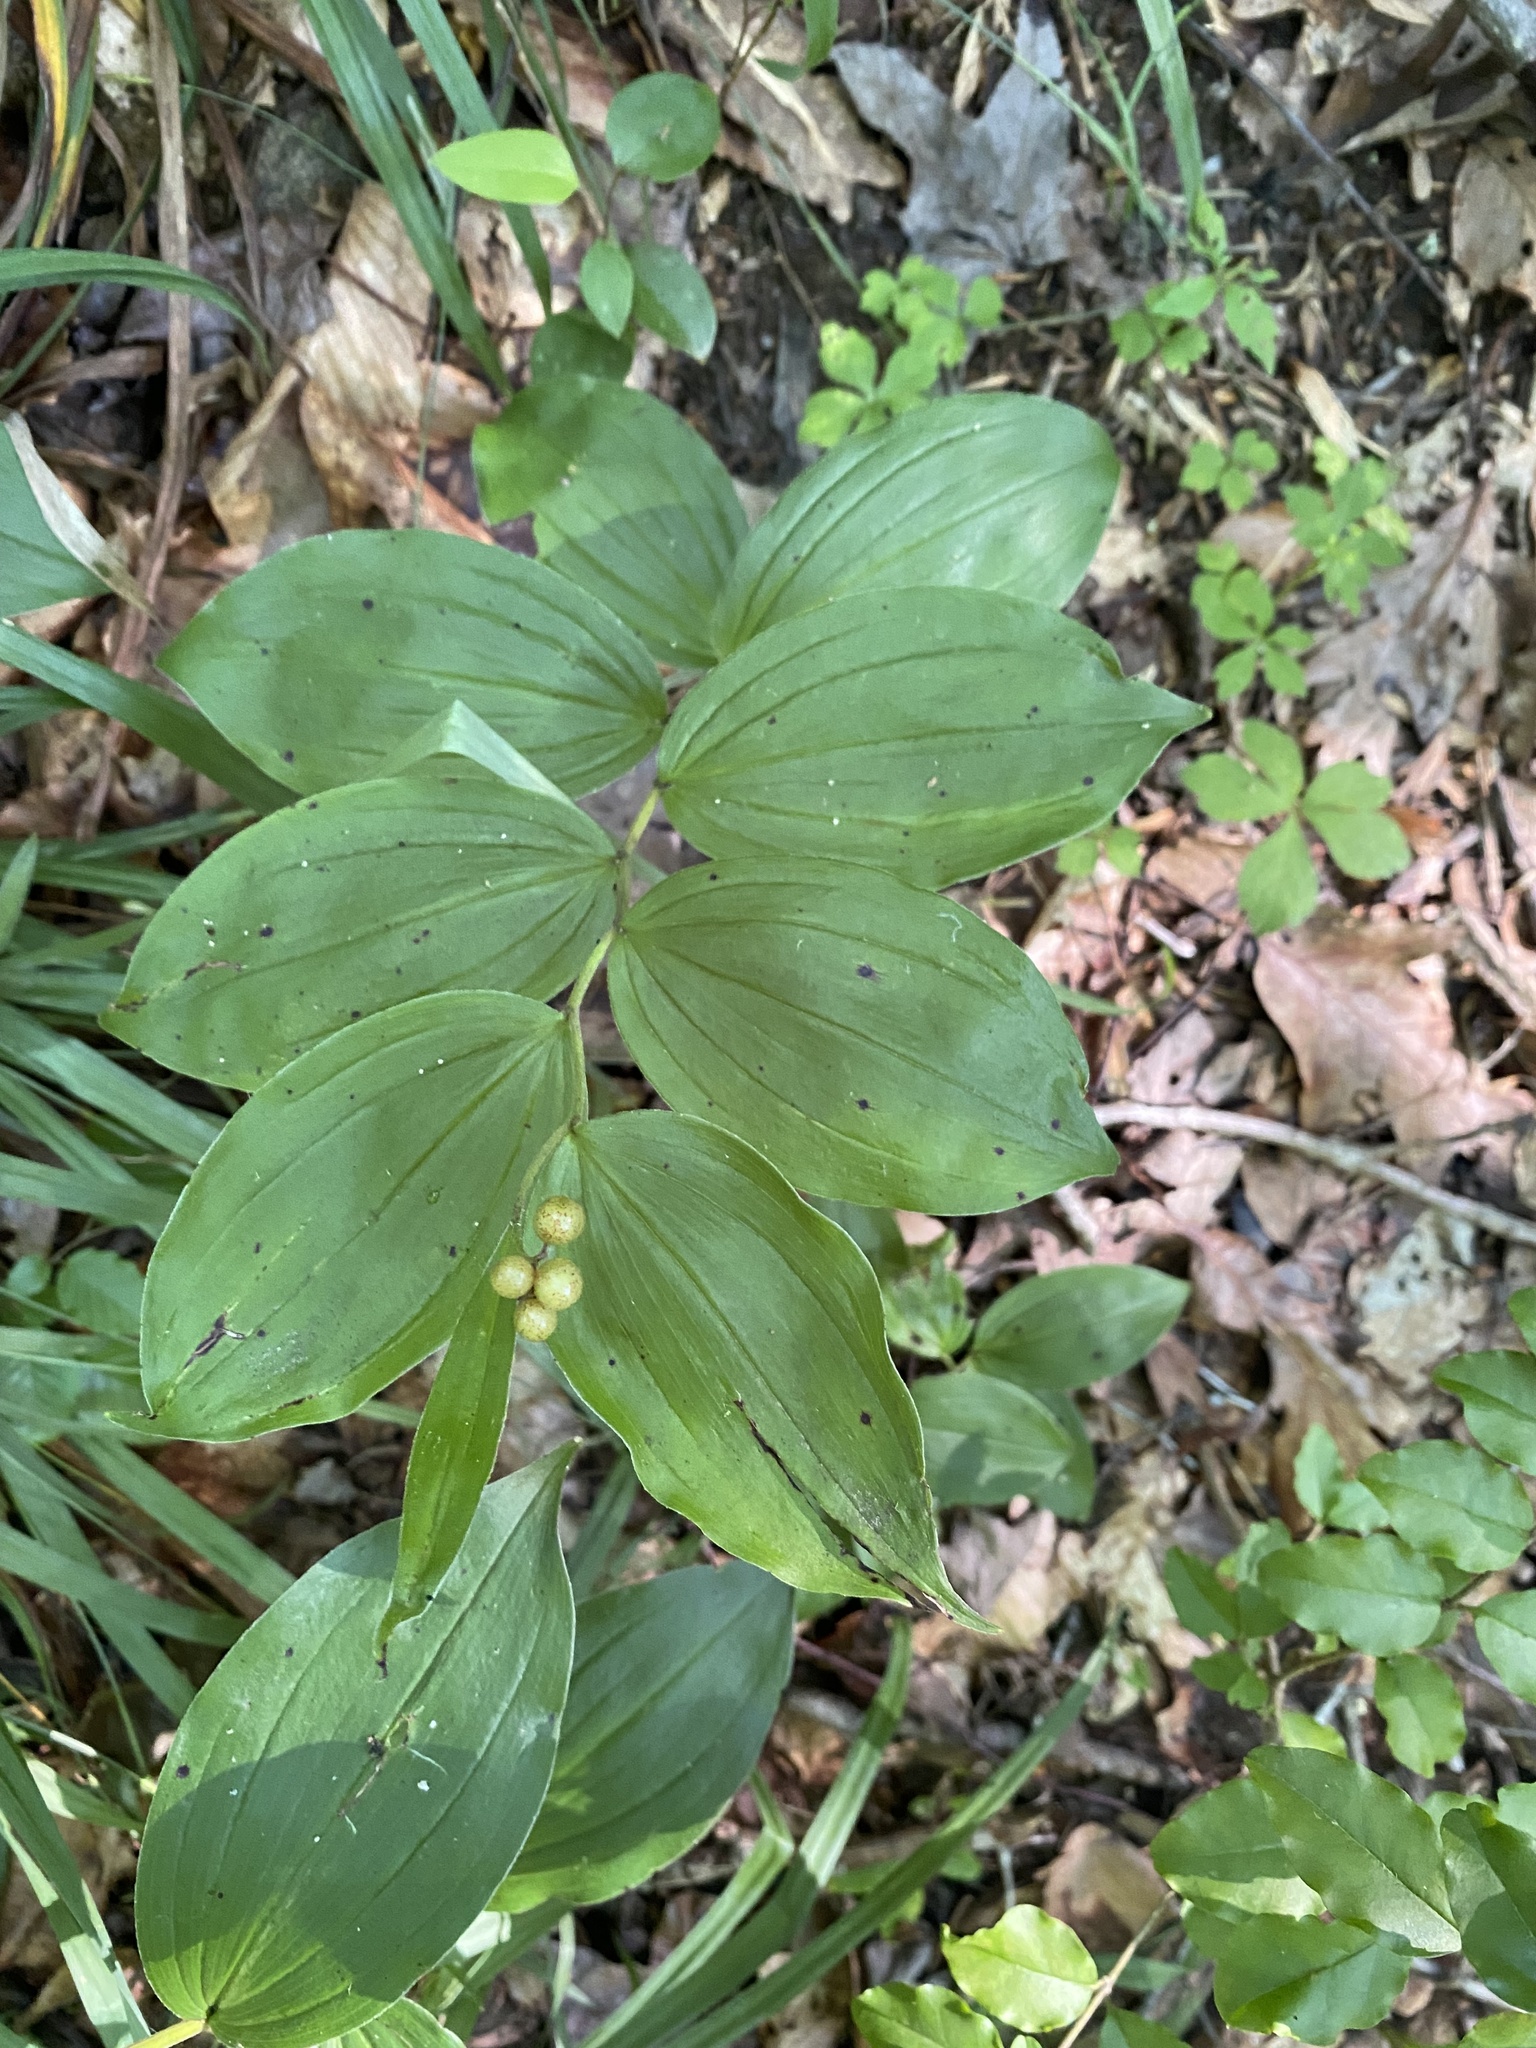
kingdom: Plantae
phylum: Tracheophyta
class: Liliopsida
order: Asparagales
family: Asparagaceae
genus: Maianthemum
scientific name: Maianthemum racemosum
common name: False spikenard
